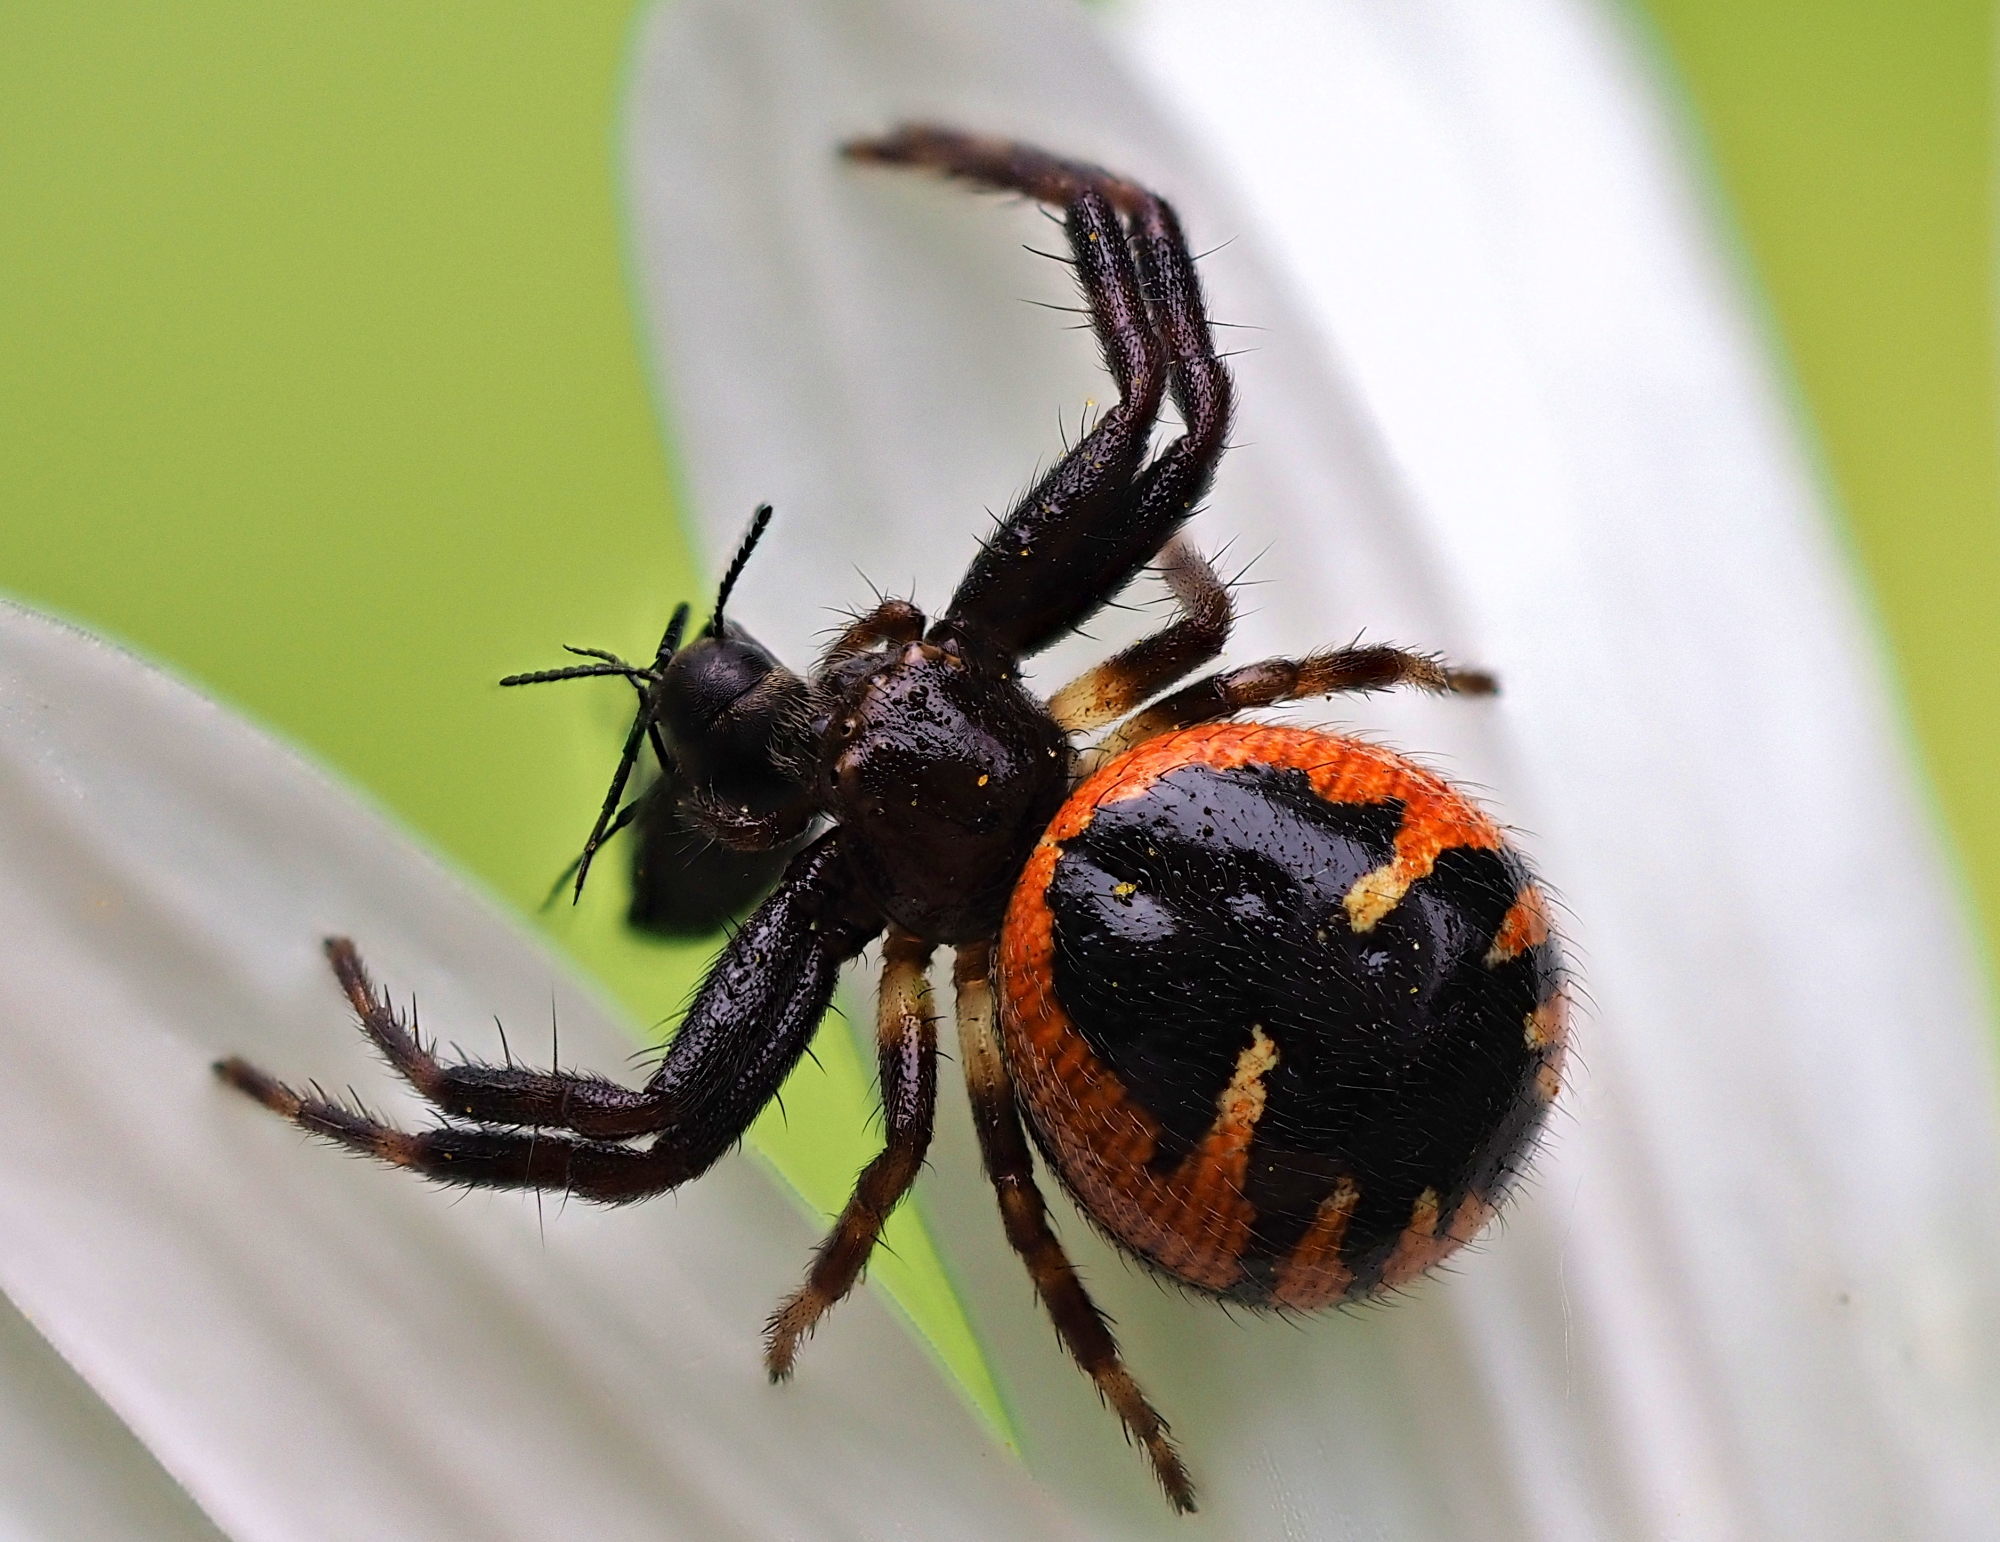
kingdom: Animalia
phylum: Arthropoda
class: Arachnida
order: Araneae
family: Thomisidae
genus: Synema
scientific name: Synema globosum
